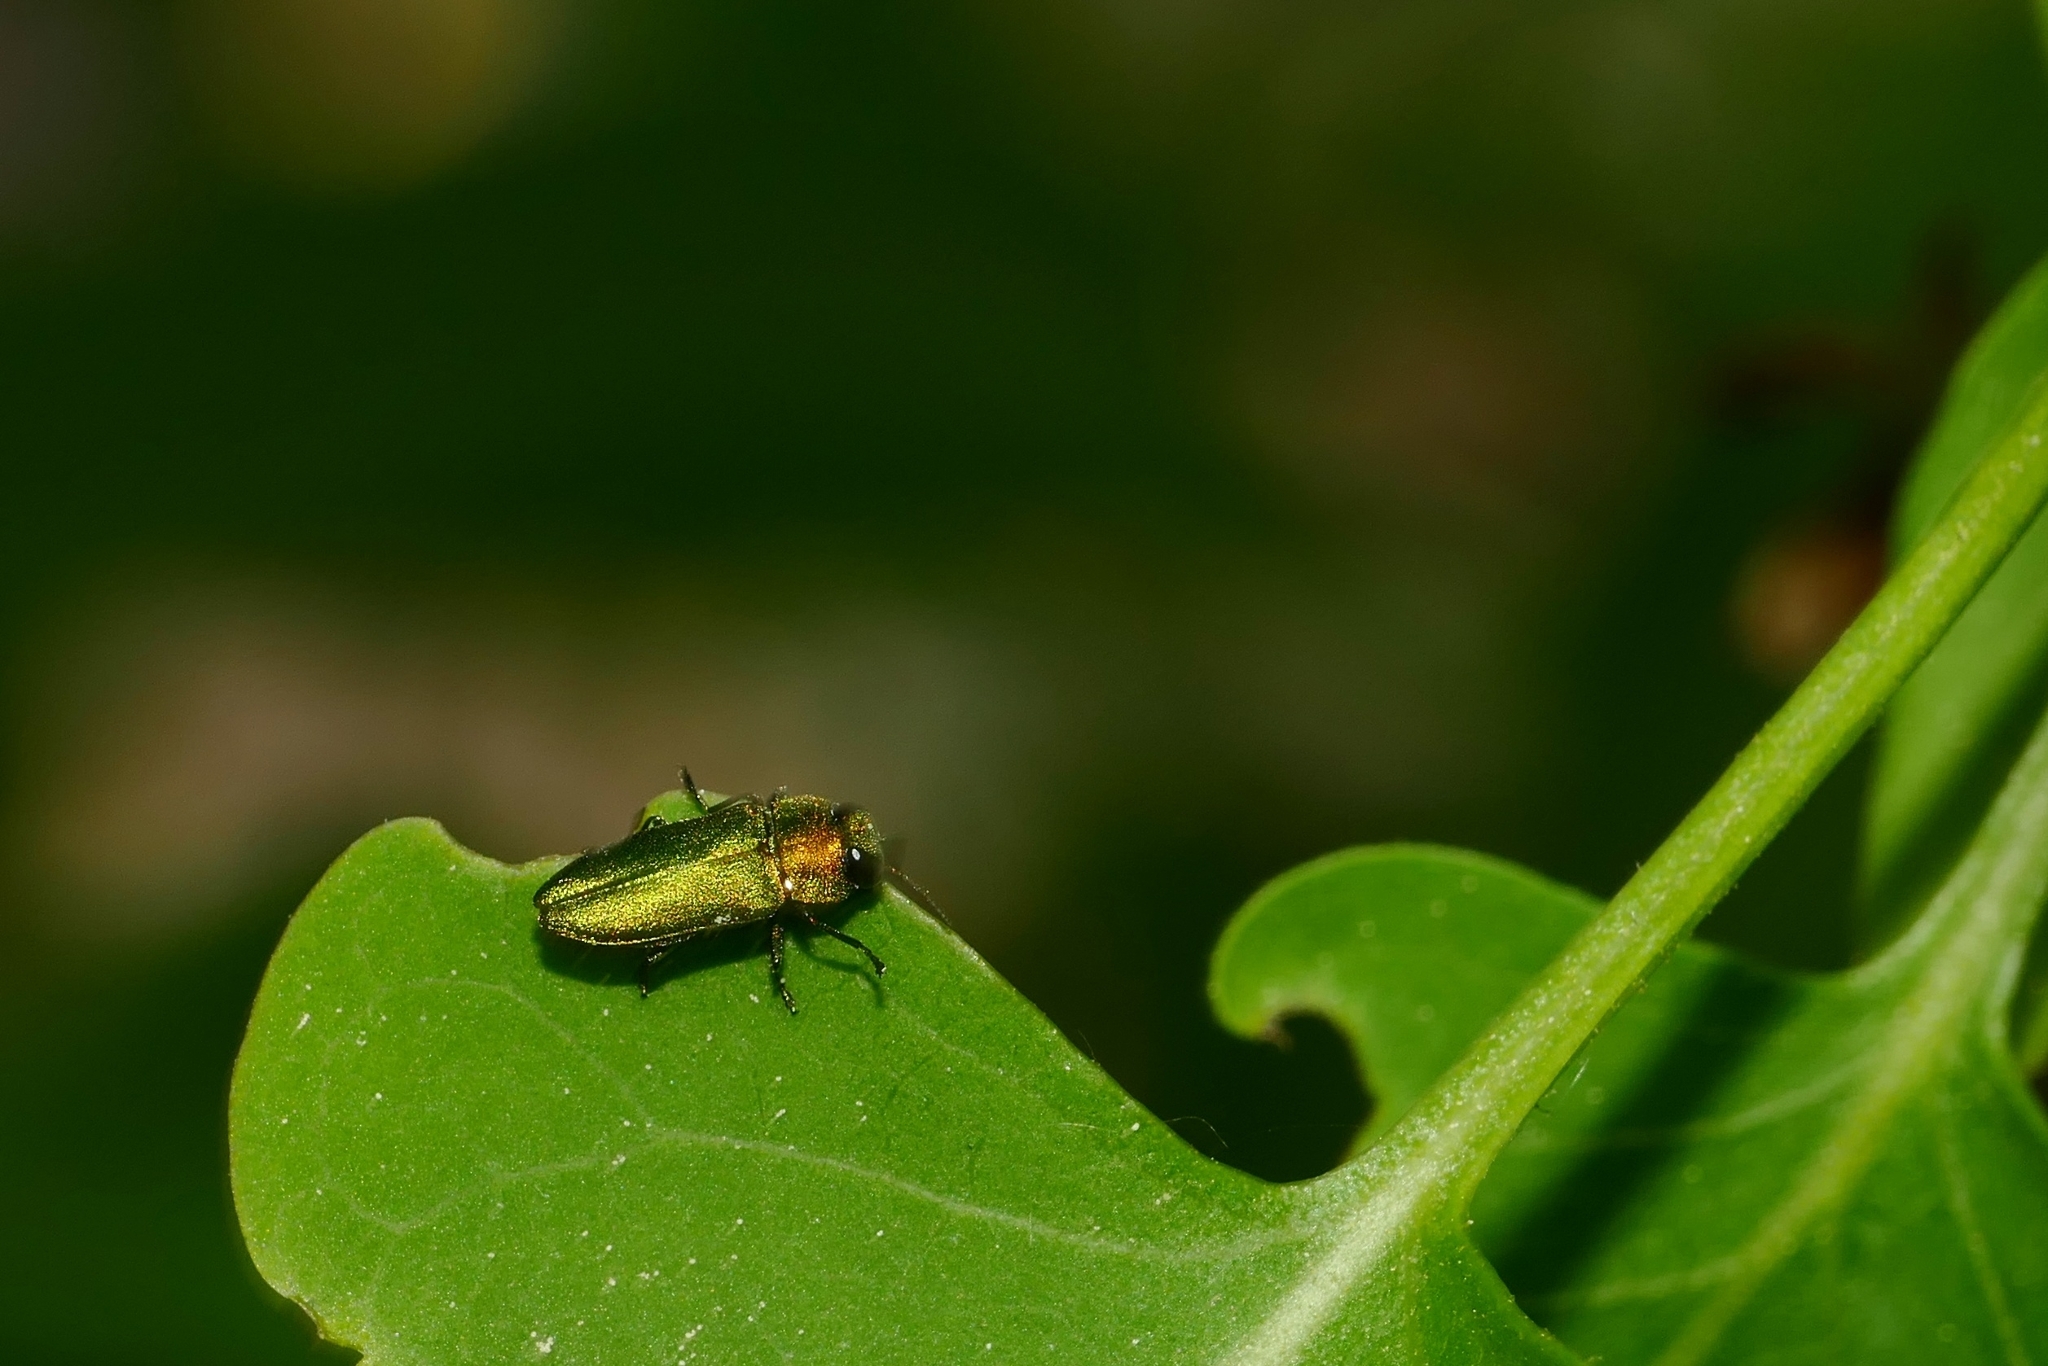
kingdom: Animalia
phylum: Arthropoda
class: Insecta
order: Coleoptera
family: Buprestidae
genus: Anthaxia
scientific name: Anthaxia nitidula
